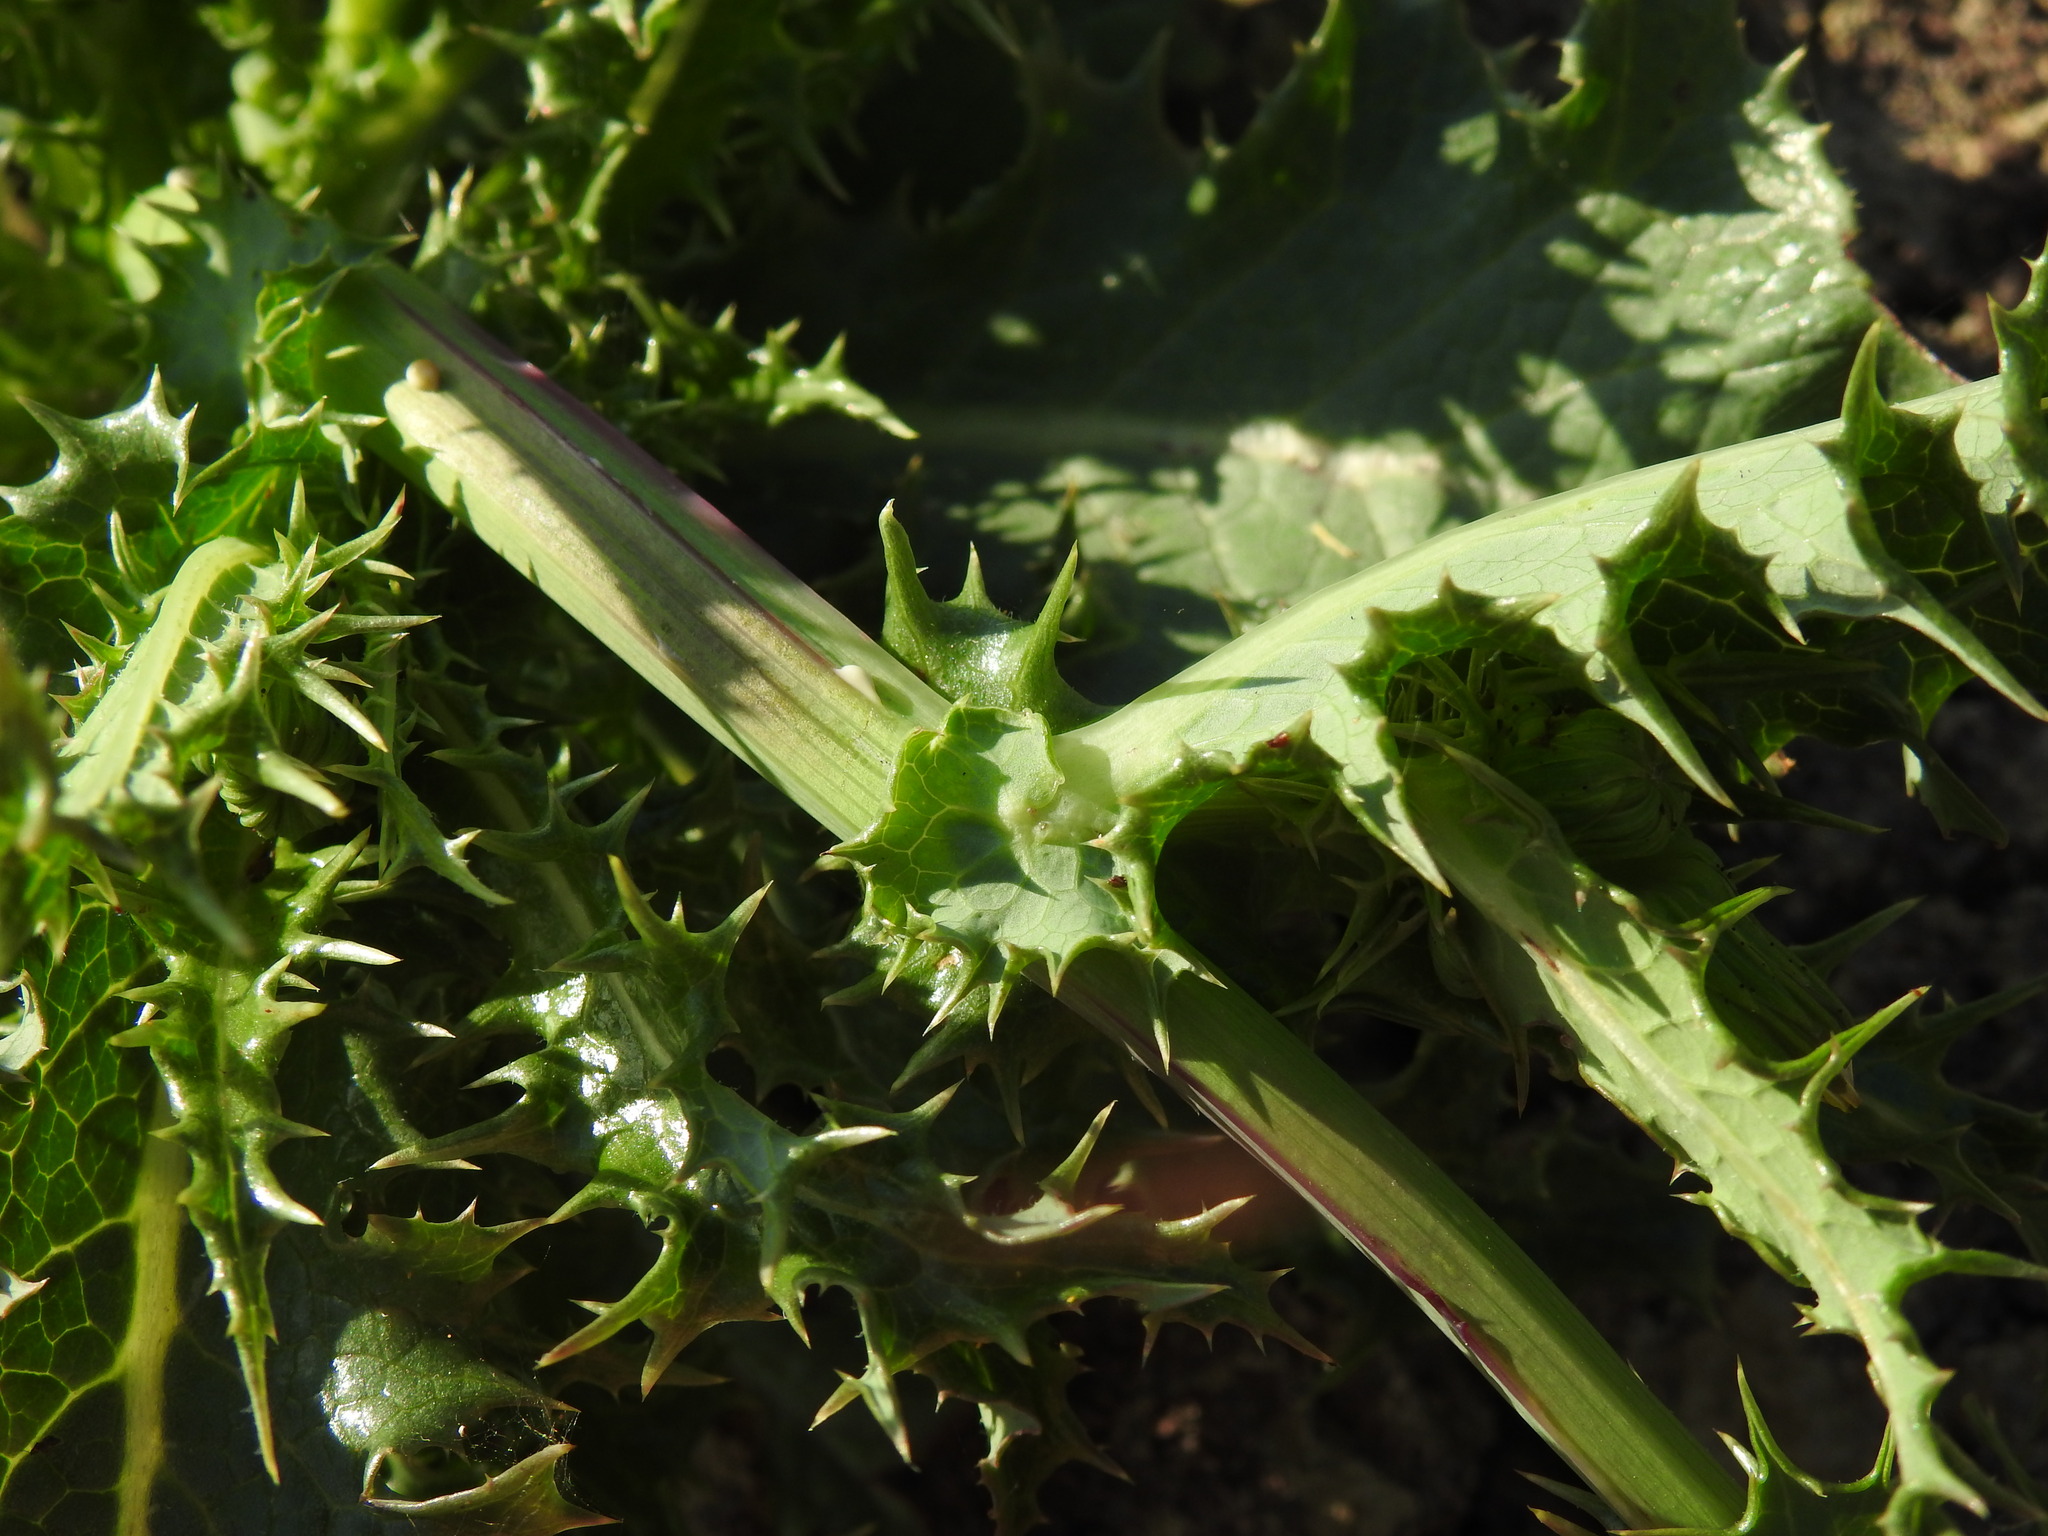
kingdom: Plantae
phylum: Tracheophyta
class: Magnoliopsida
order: Asterales
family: Asteraceae
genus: Sonchus
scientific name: Sonchus asper
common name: Prickly sow-thistle
